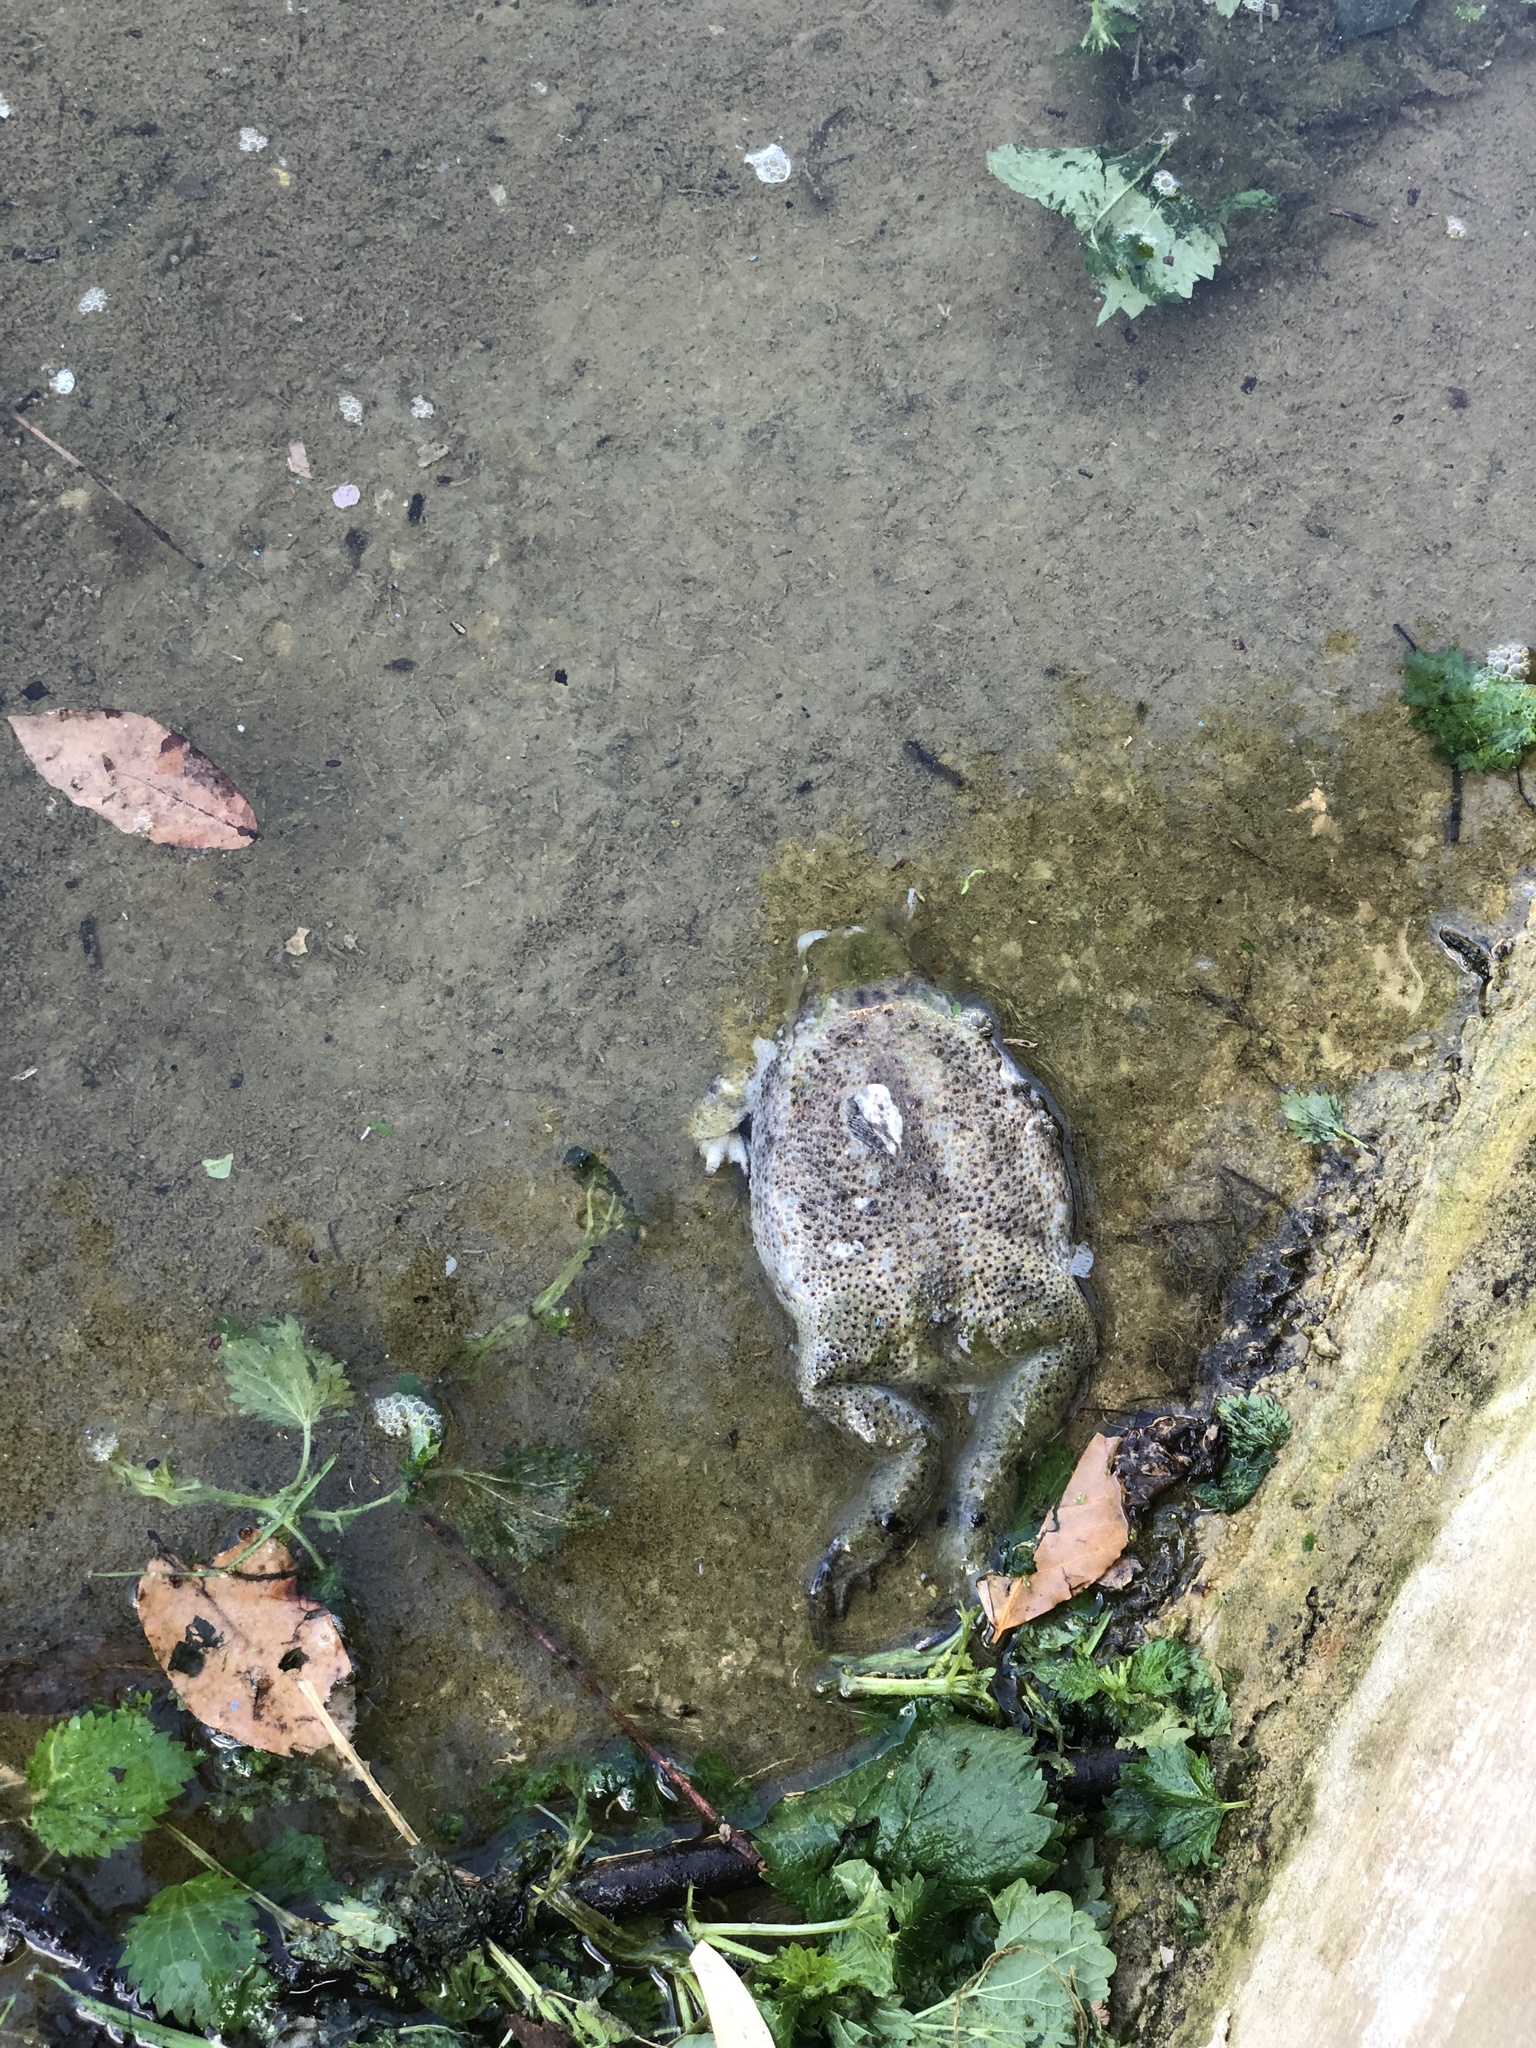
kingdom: Animalia
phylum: Chordata
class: Amphibia
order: Anura
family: Bufonidae
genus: Bufo
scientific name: Bufo bufo
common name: Common toad
